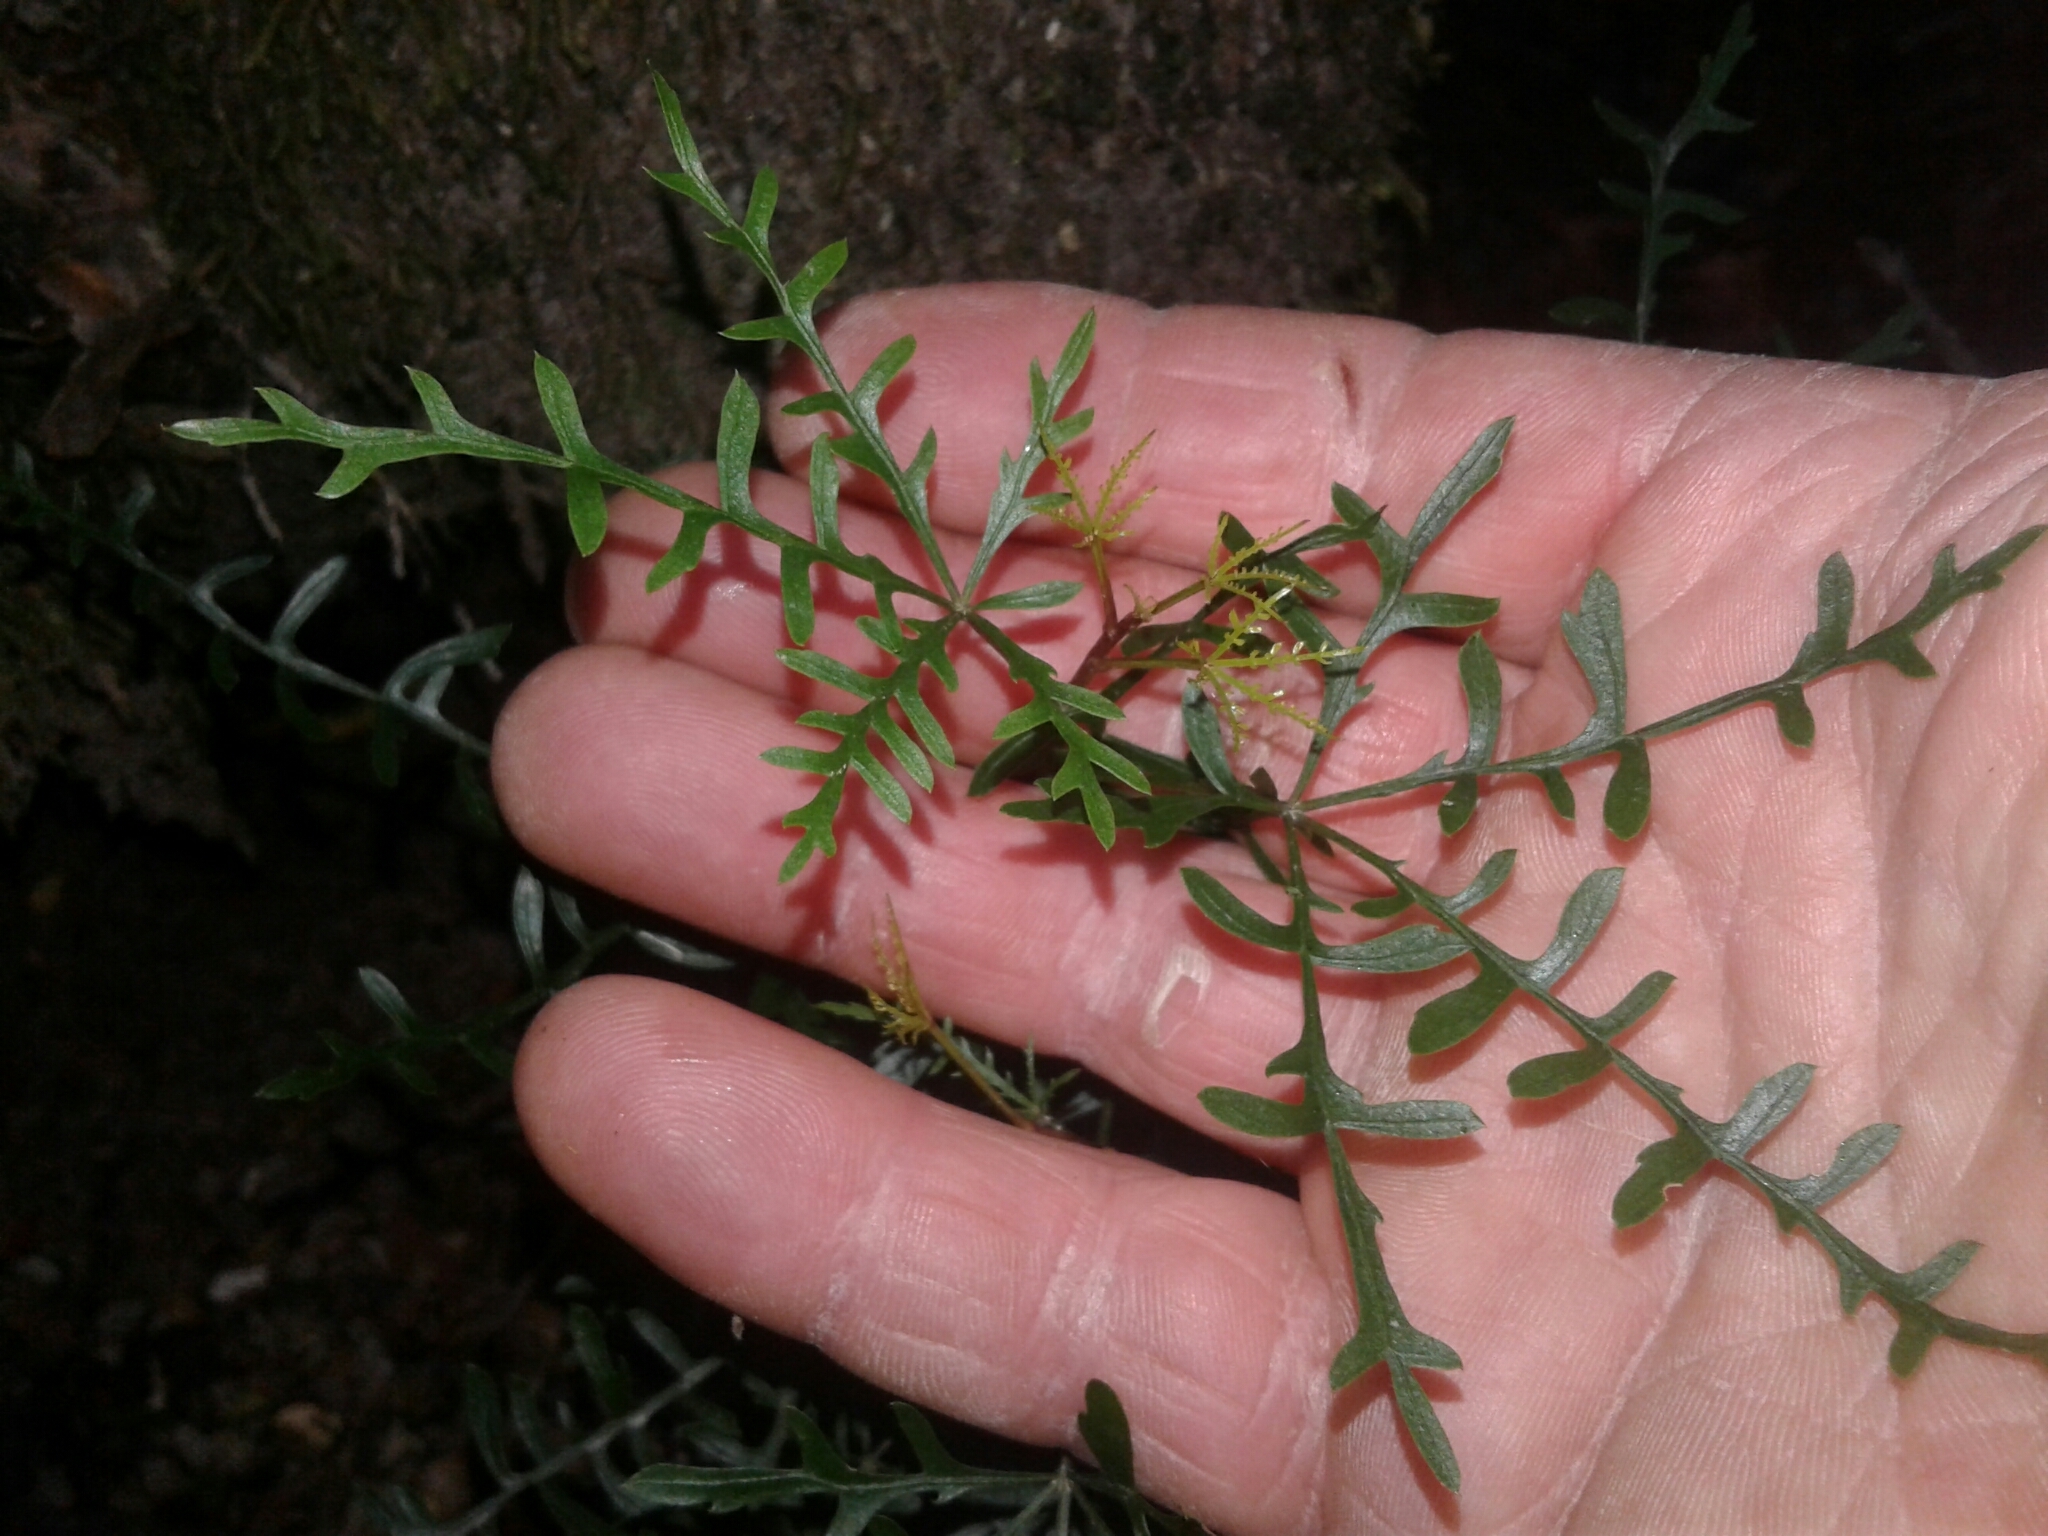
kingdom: Plantae
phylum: Tracheophyta
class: Magnoliopsida
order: Apiales
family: Araliaceae
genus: Raukaua
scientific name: Raukaua simplex
